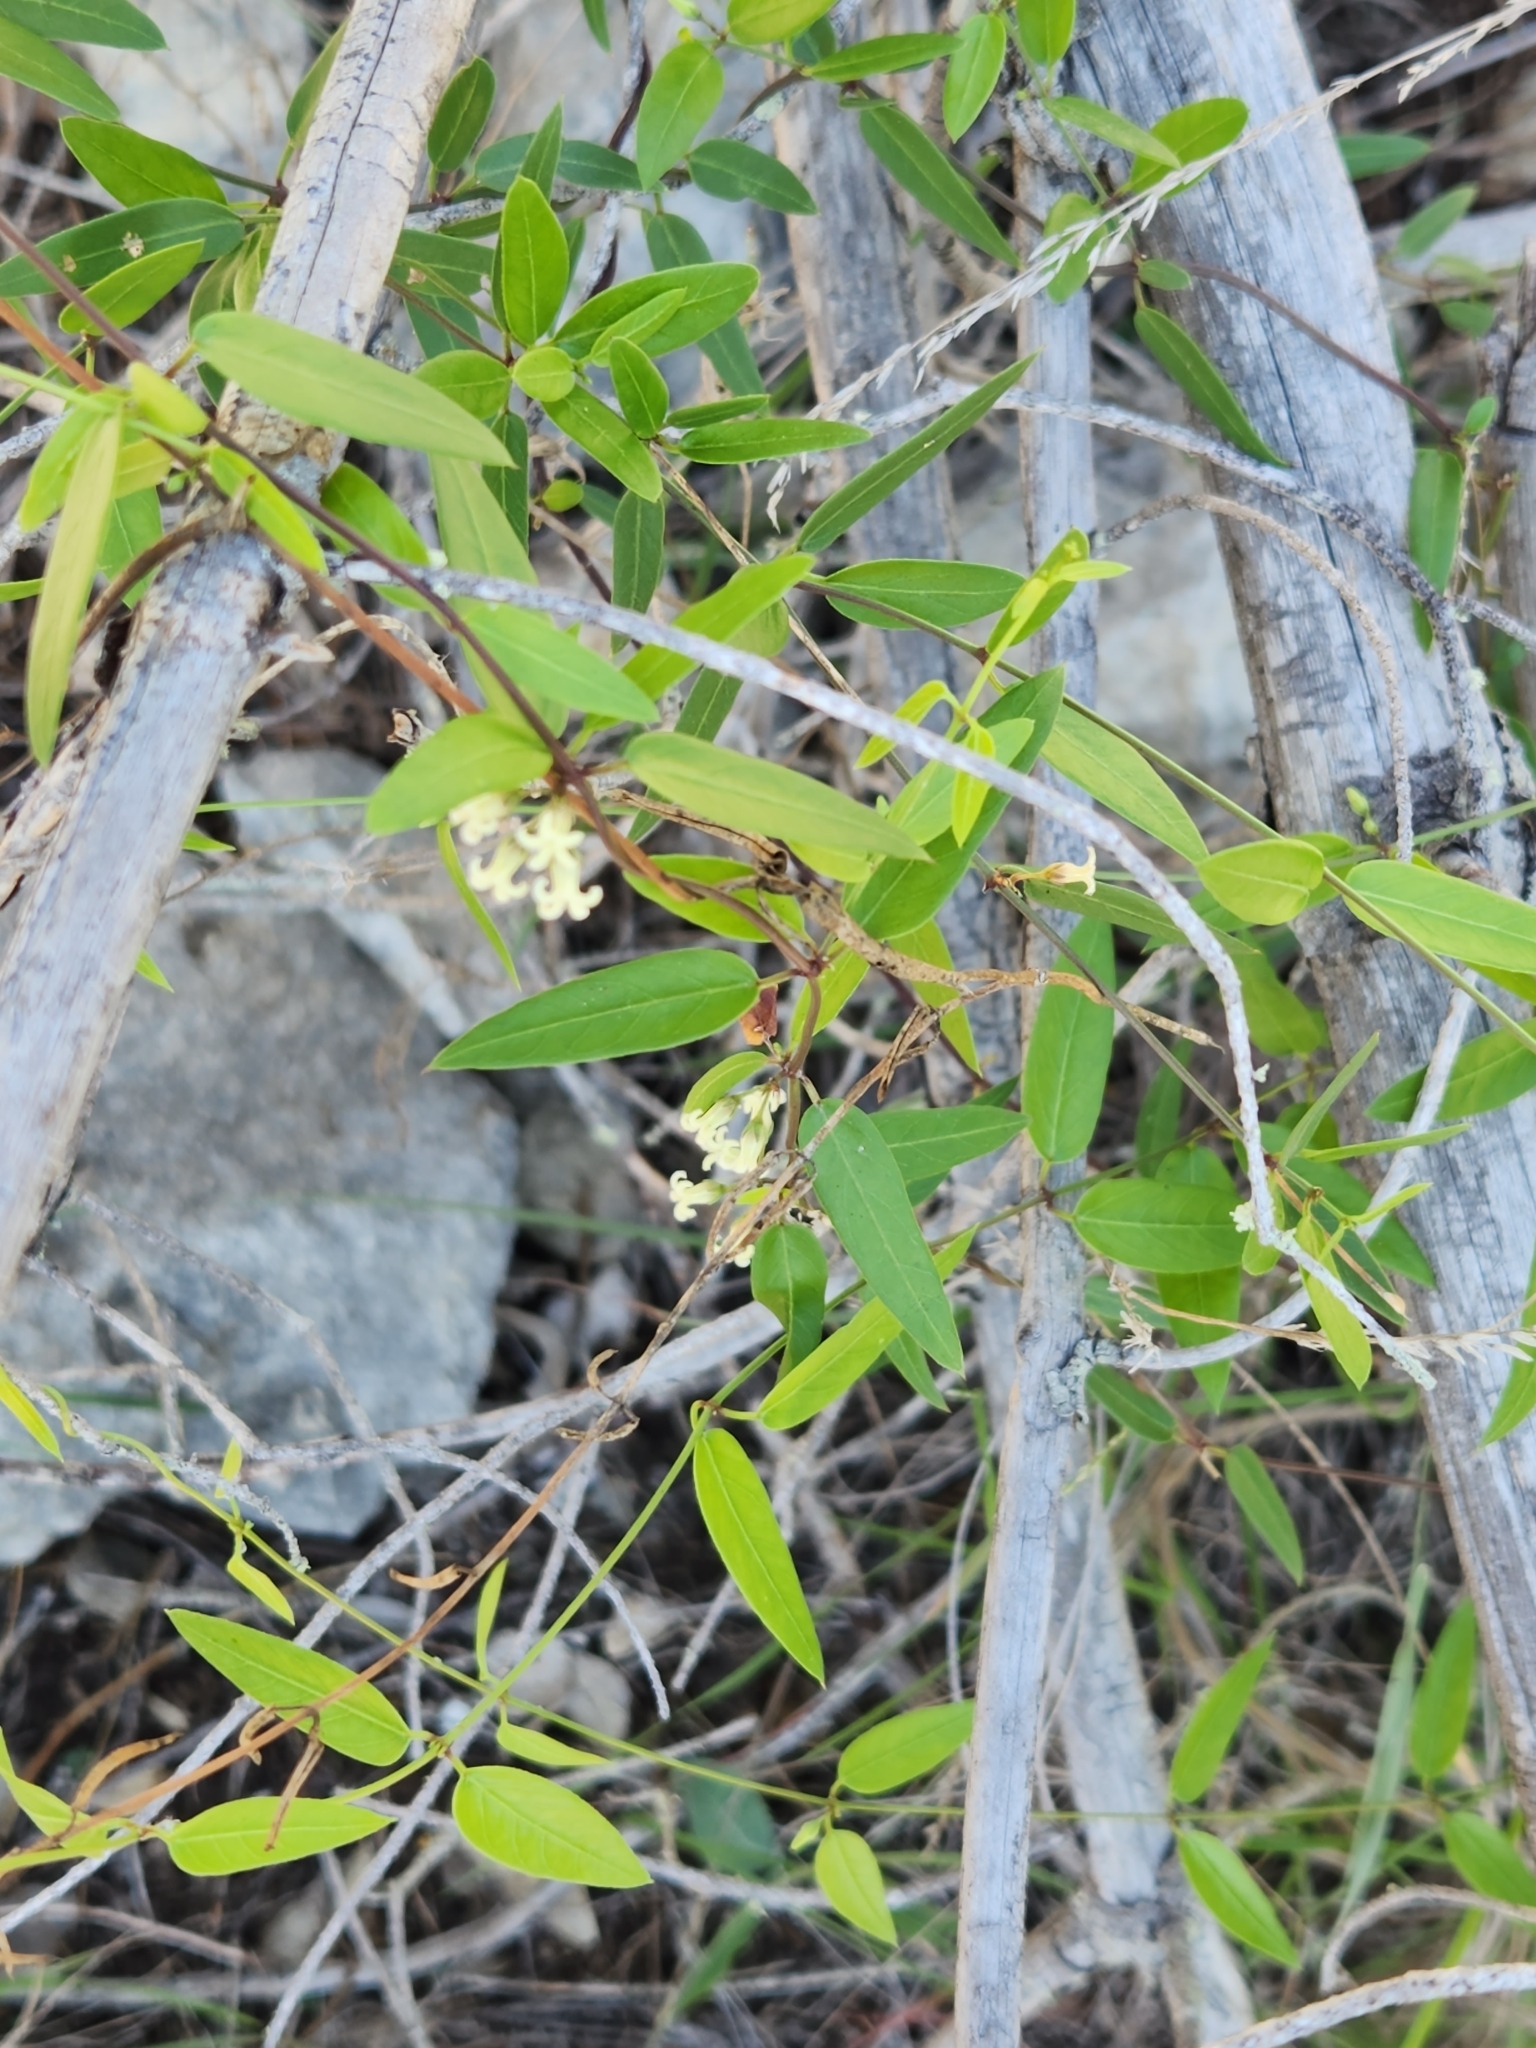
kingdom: Plantae
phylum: Tracheophyta
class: Magnoliopsida
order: Gentianales
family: Apocynaceae
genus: Metastelma
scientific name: Metastelma barbigerum
